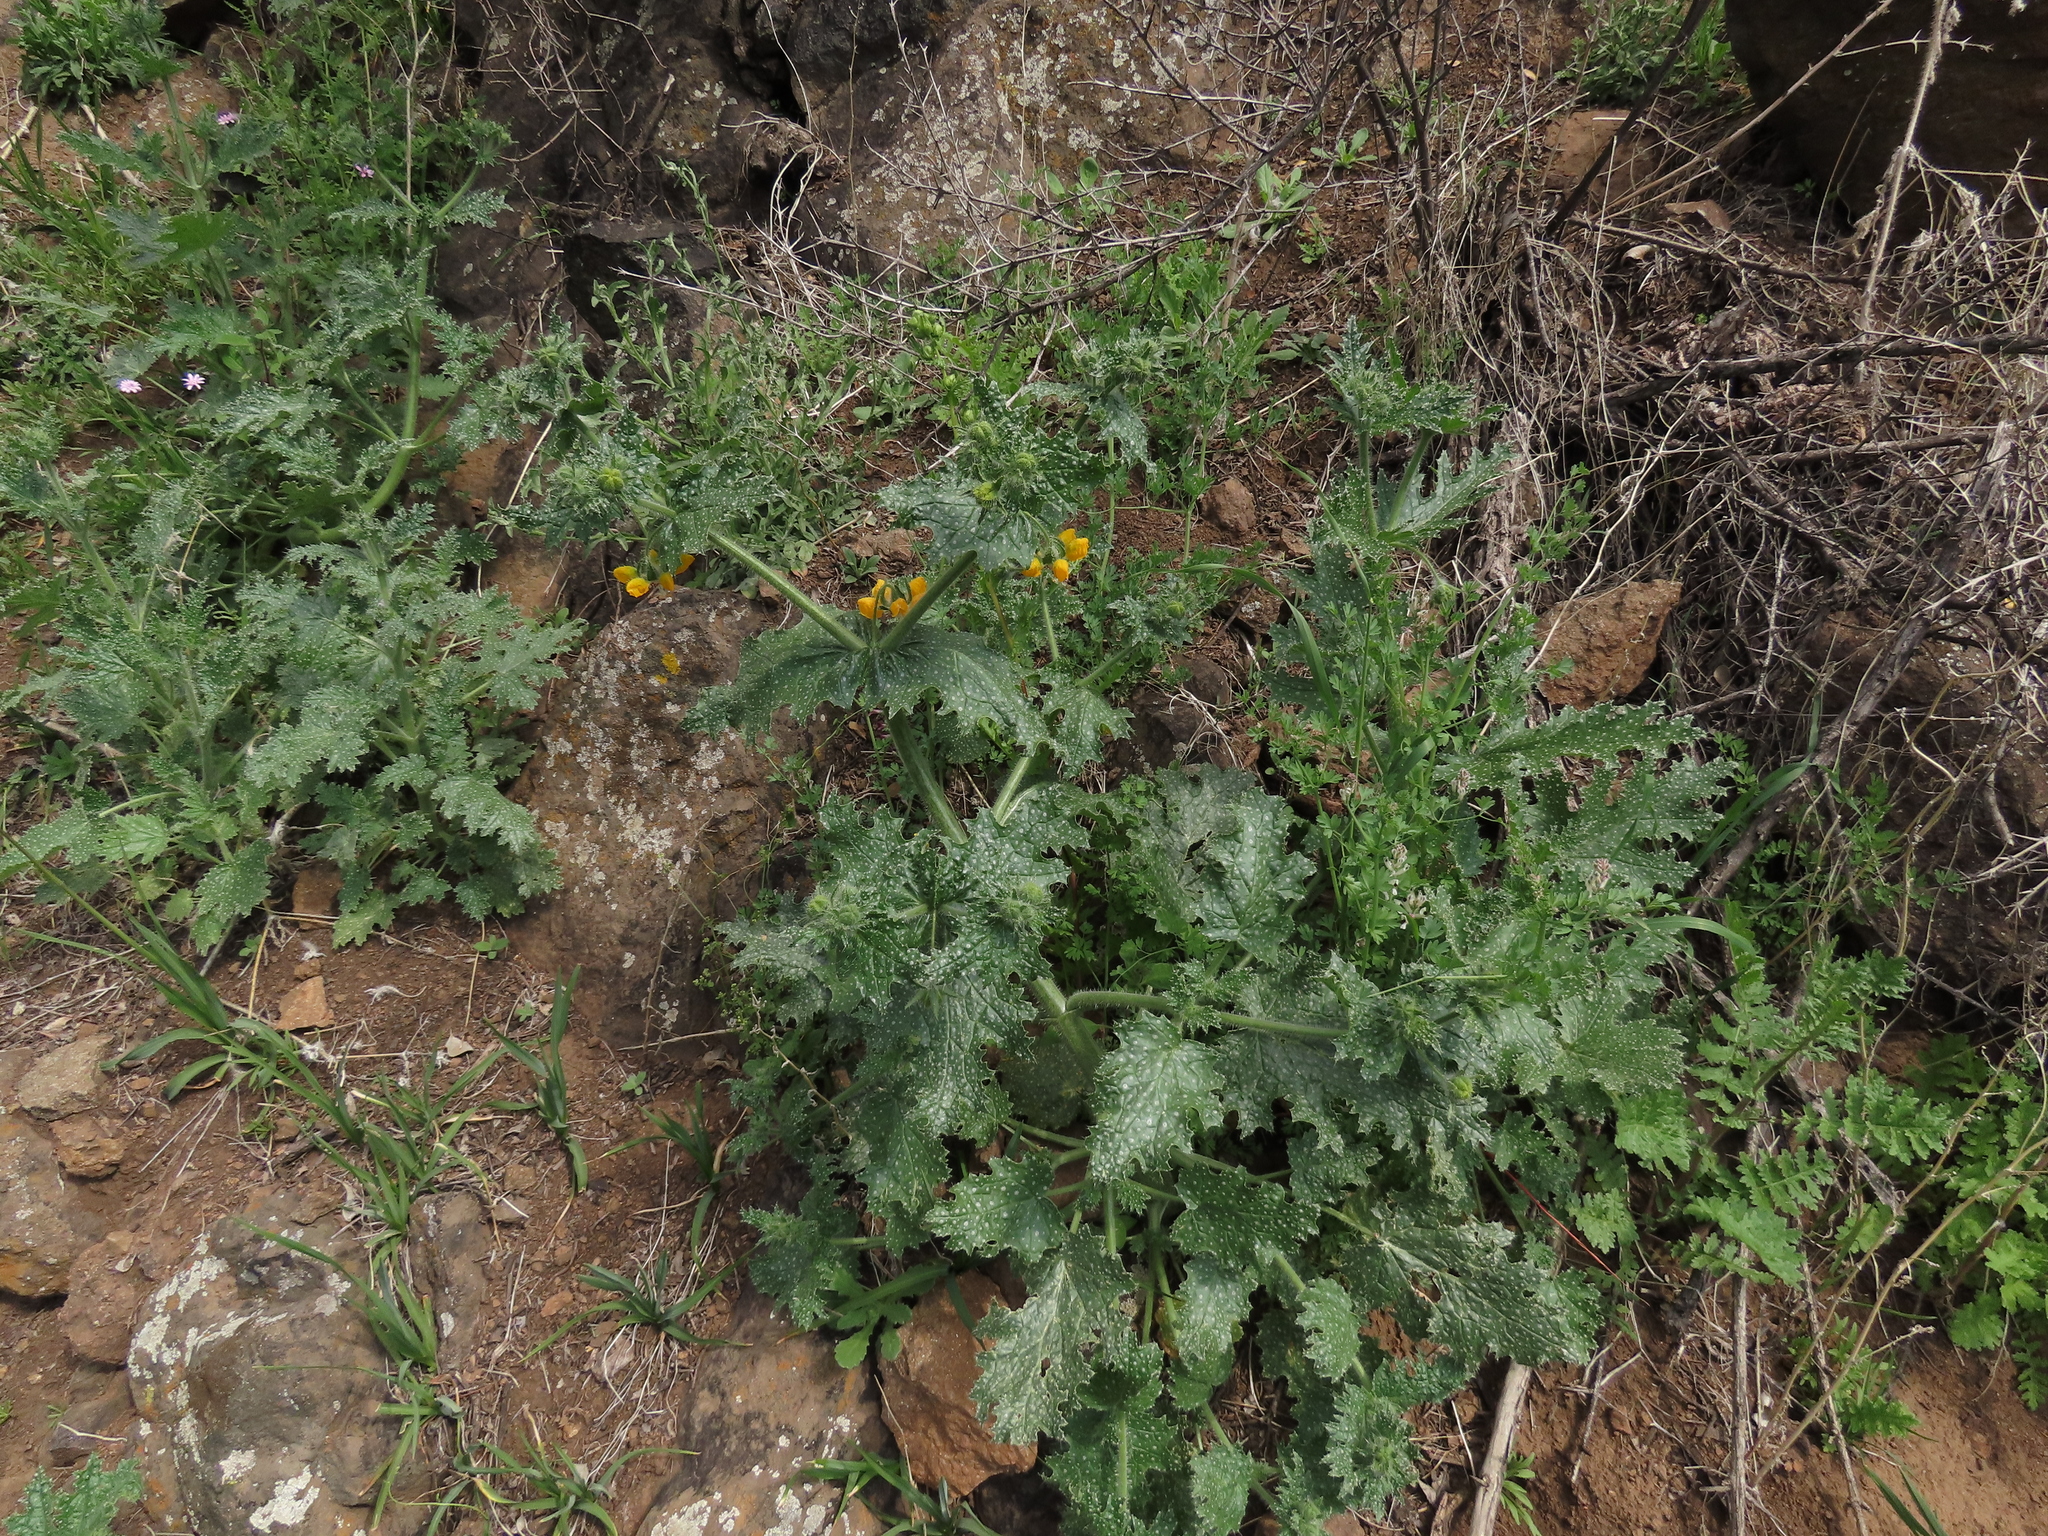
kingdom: Plantae
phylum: Tracheophyta
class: Magnoliopsida
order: Cornales
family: Loasaceae
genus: Loasa
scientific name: Loasa placei
